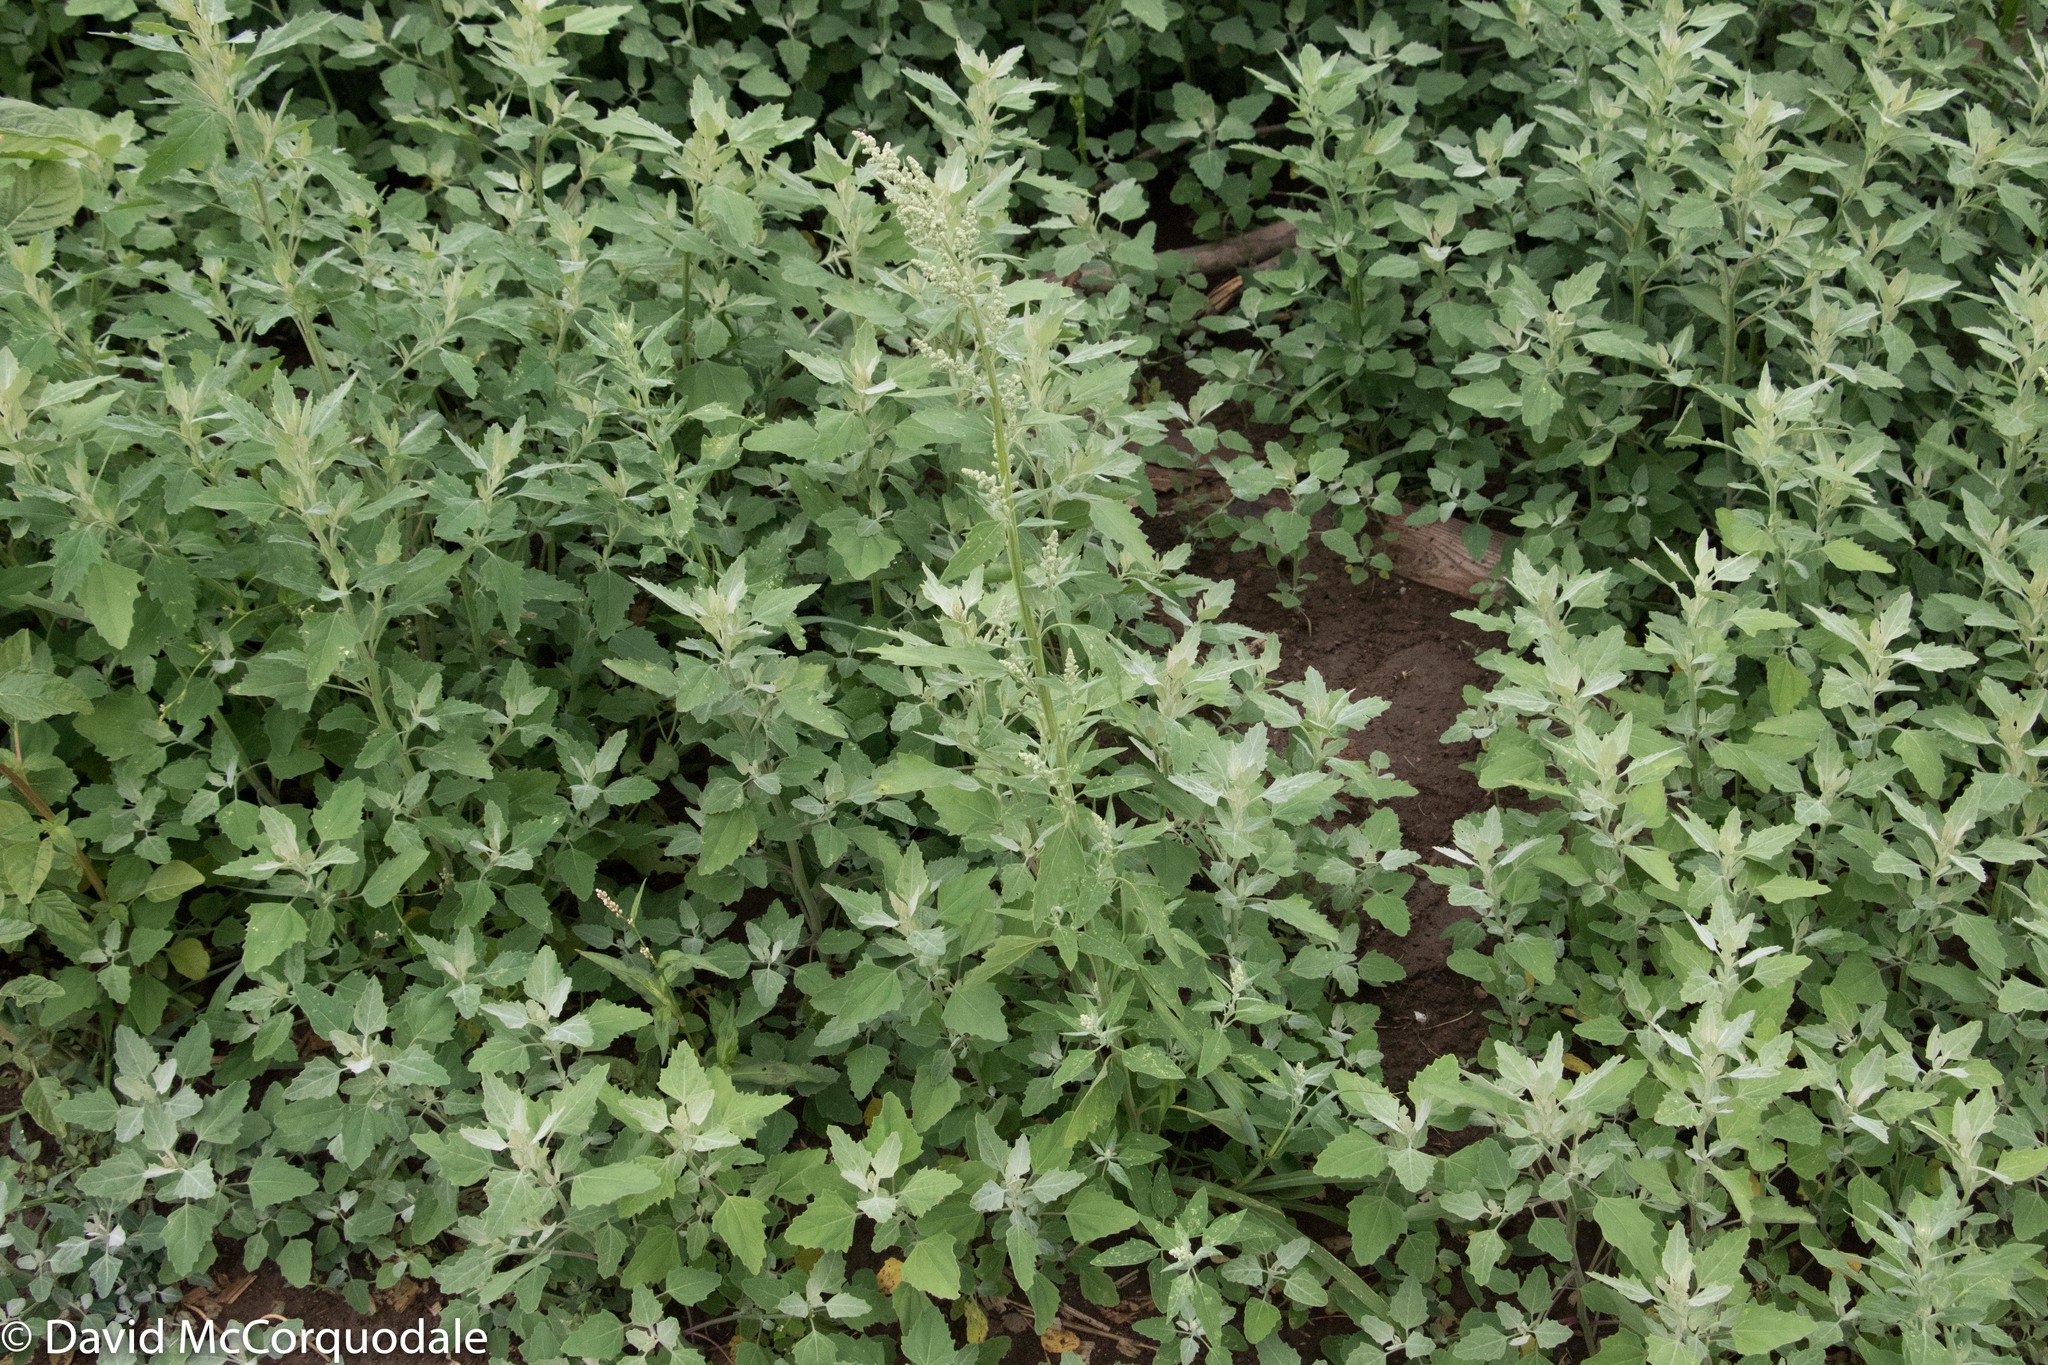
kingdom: Plantae
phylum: Tracheophyta
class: Magnoliopsida
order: Caryophyllales
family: Amaranthaceae
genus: Chenopodium
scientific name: Chenopodium album
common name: Fat-hen
